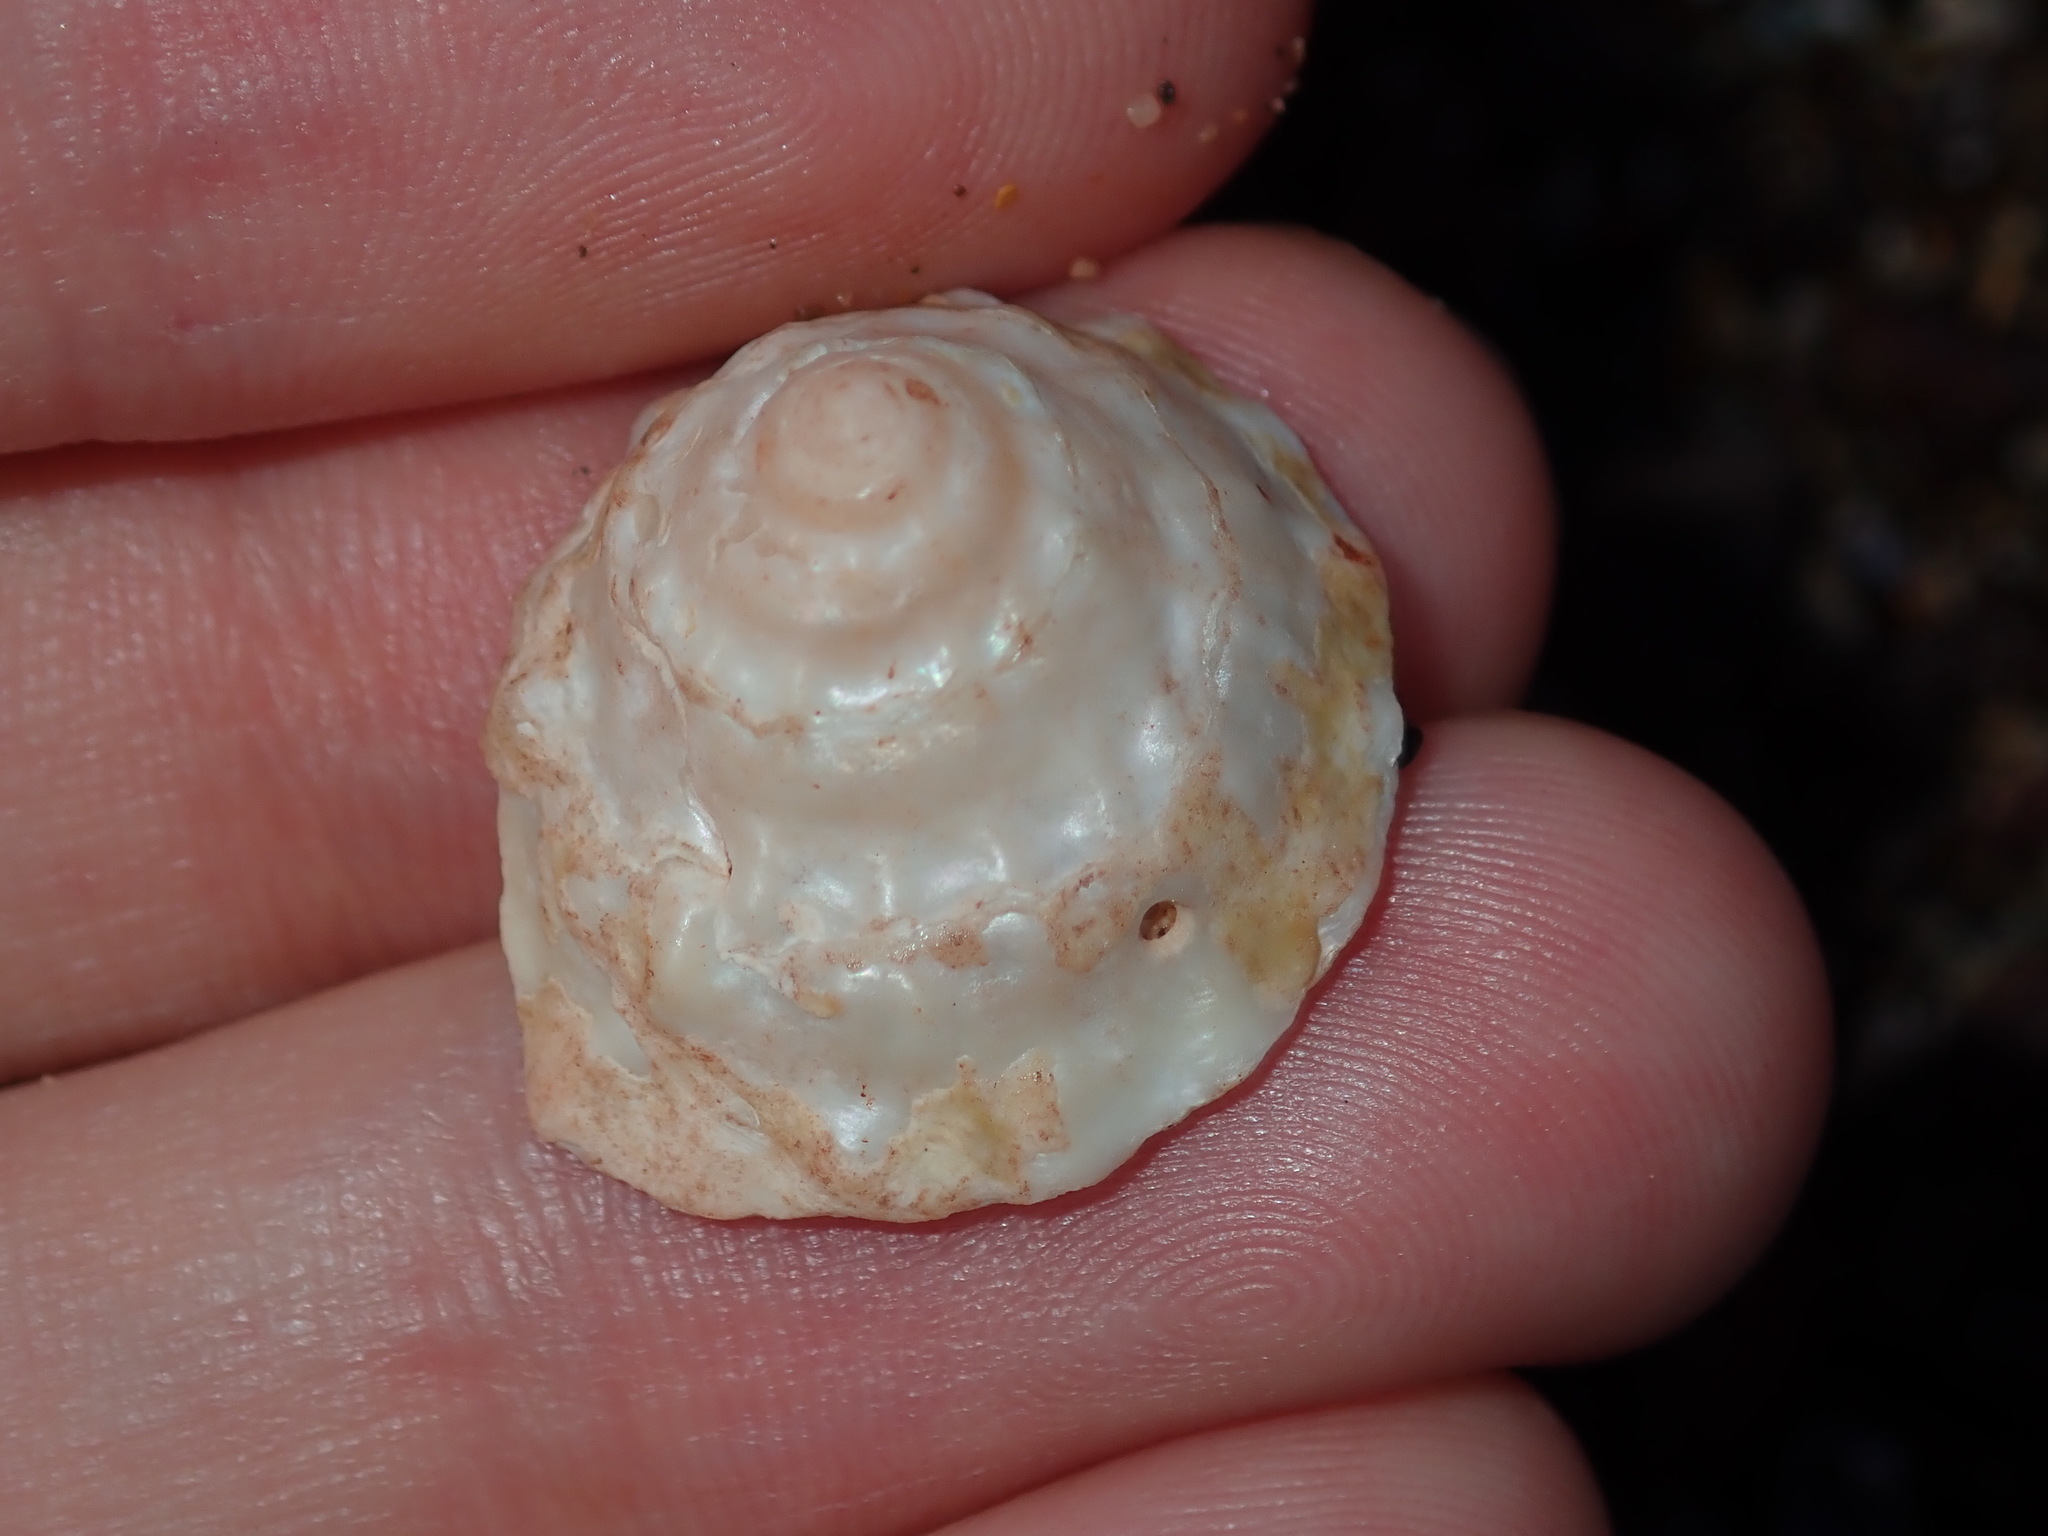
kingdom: Animalia
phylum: Mollusca
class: Gastropoda
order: Trochida
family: Turbinidae
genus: Astralium
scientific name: Astralium tentoriiforme
